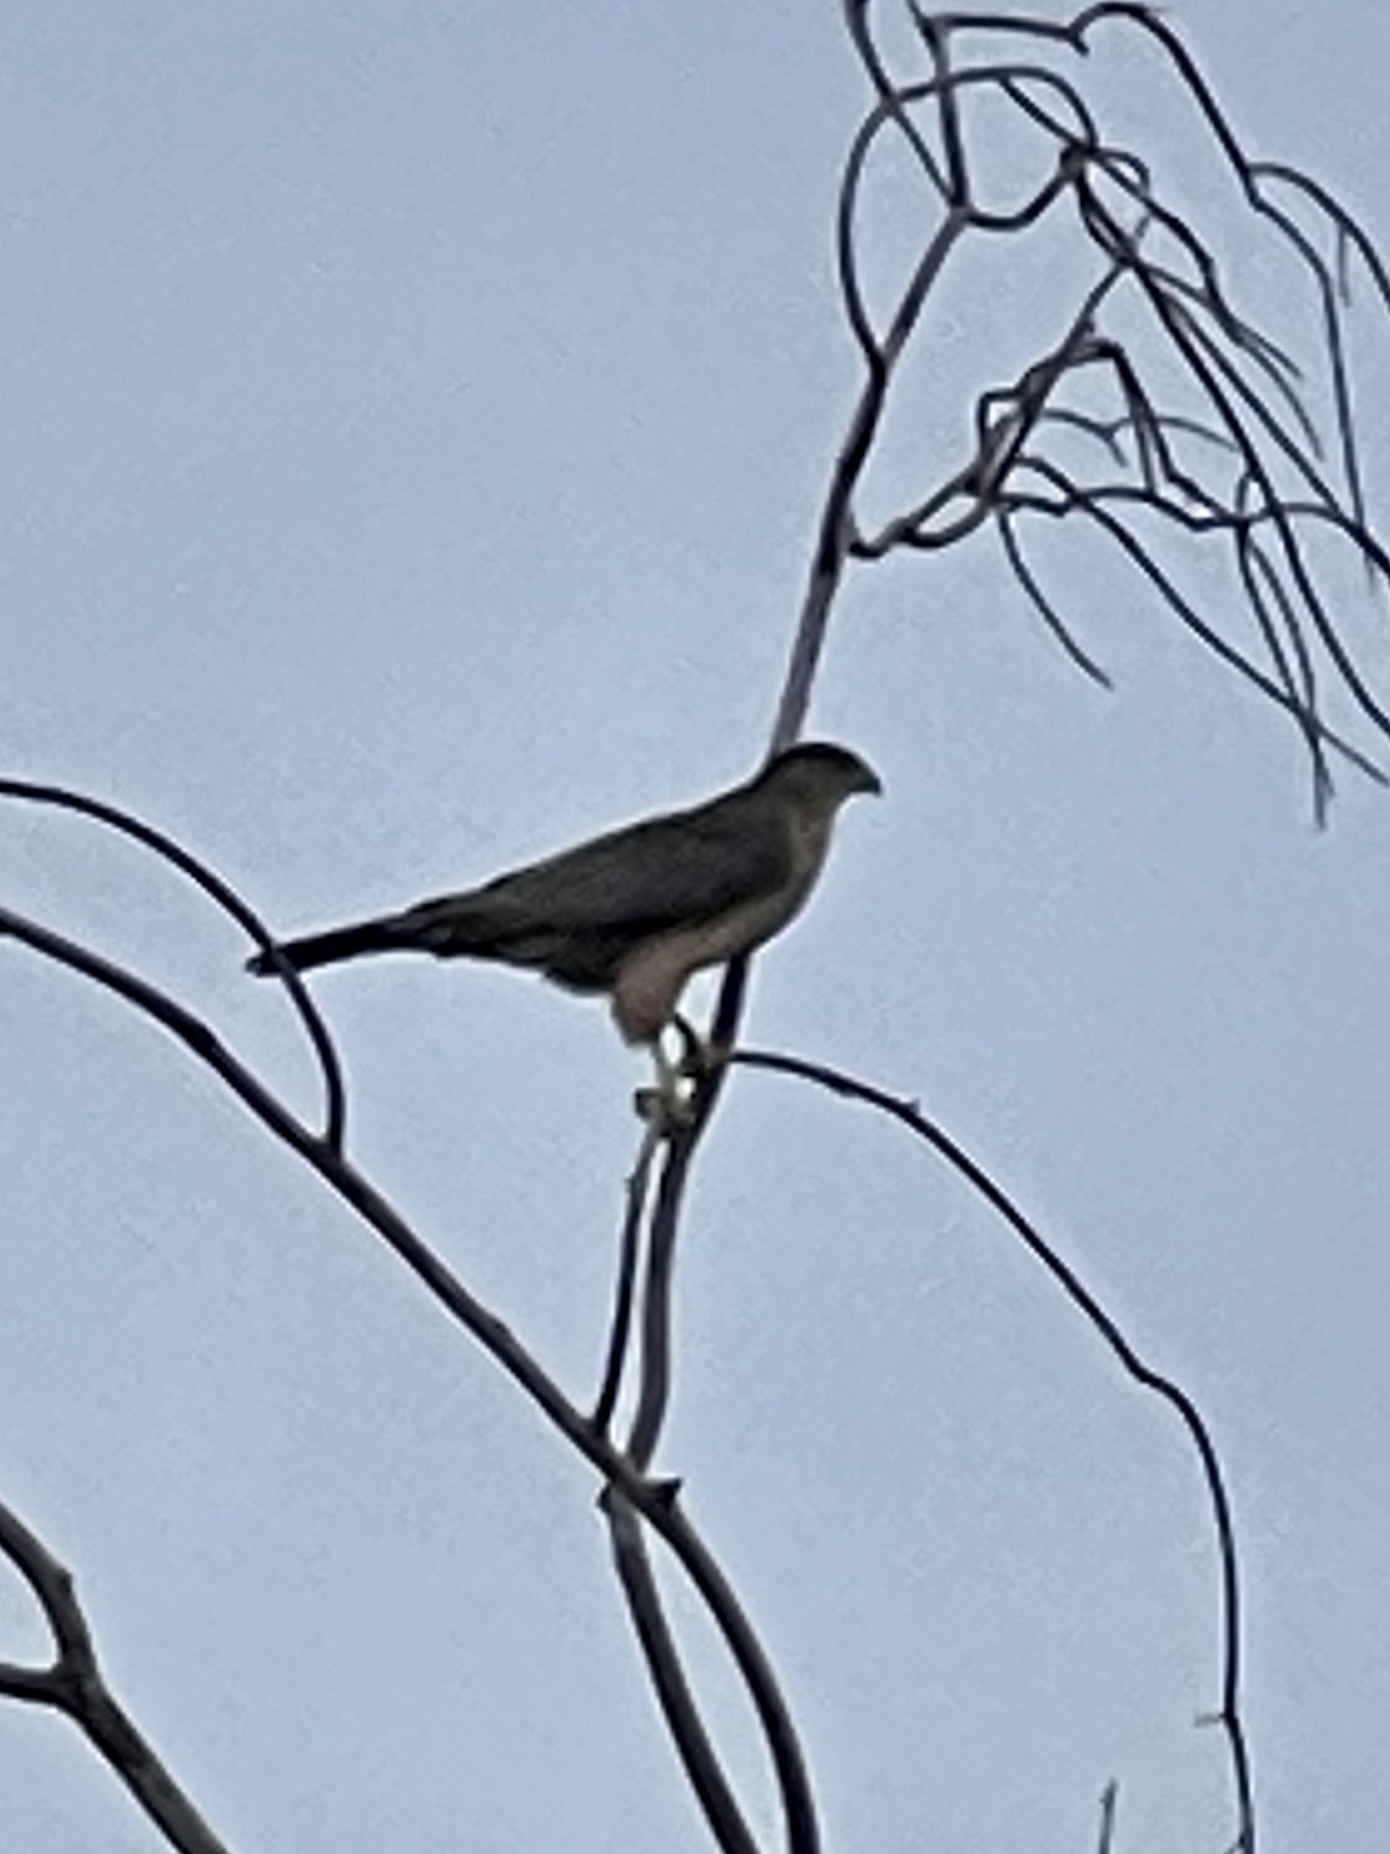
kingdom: Animalia
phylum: Chordata
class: Aves
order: Accipitriformes
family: Accipitridae
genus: Accipiter
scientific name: Accipiter cooperii
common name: Cooper's hawk
